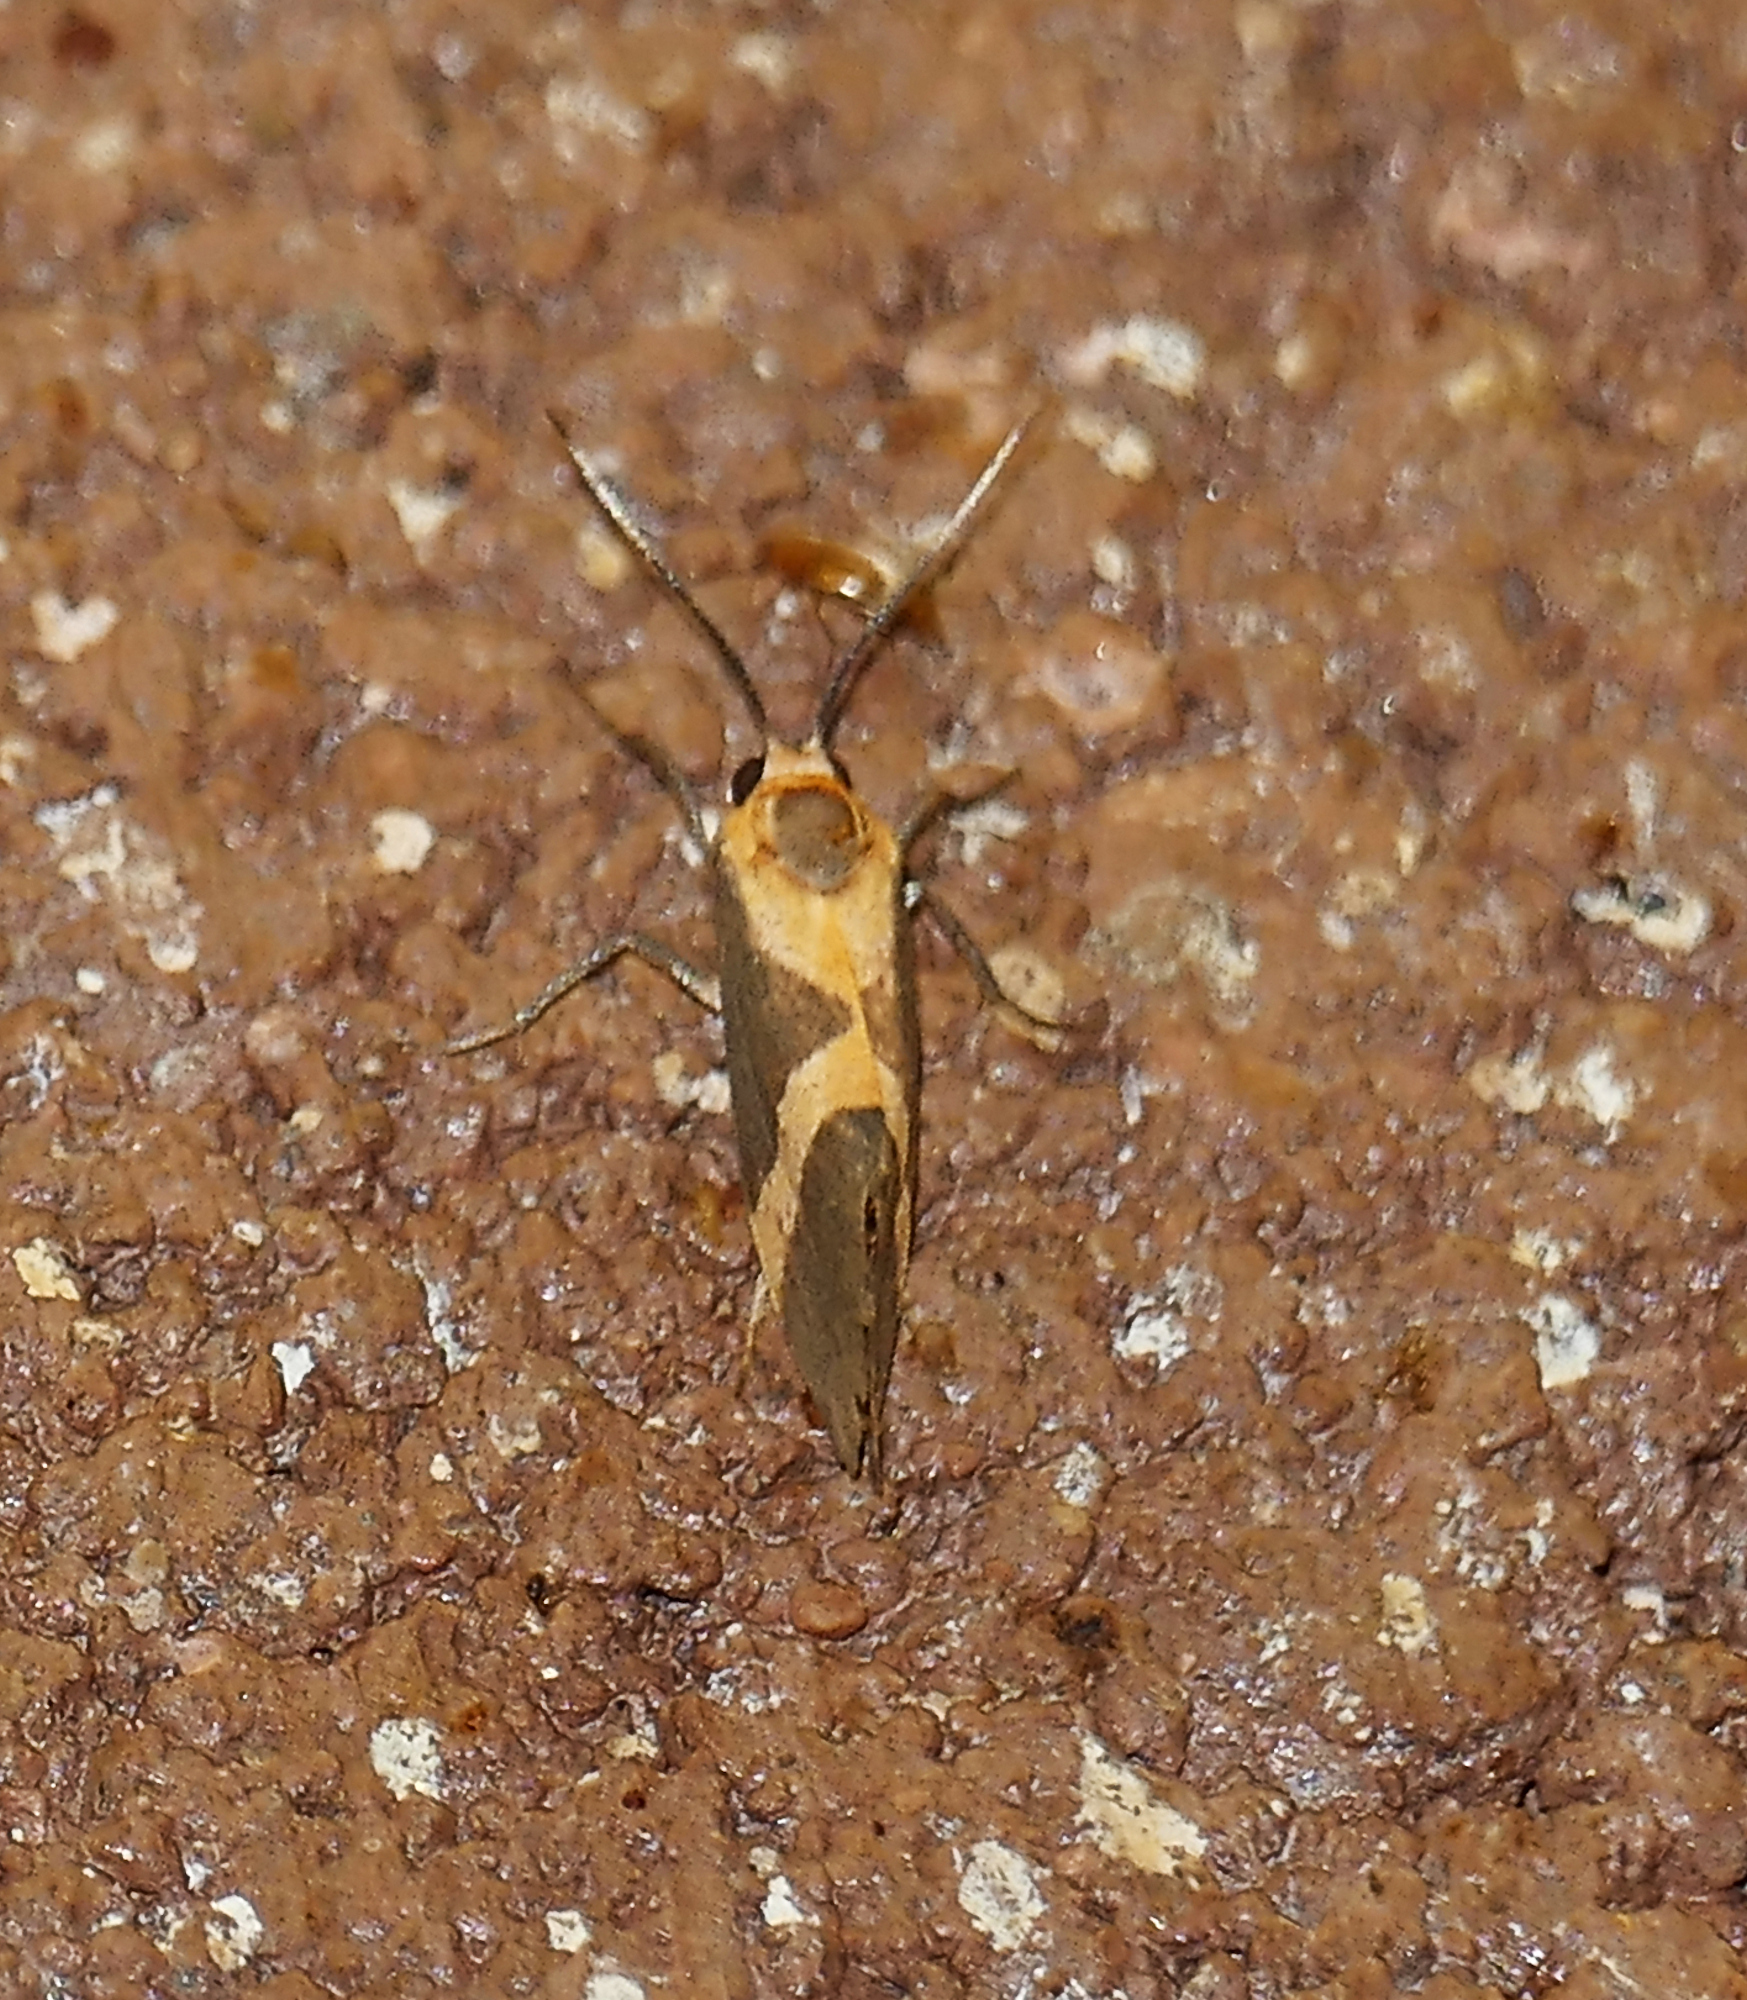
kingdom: Animalia
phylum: Arthropoda
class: Insecta
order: Lepidoptera
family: Erebidae
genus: Cisthene
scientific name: Cisthene tenuifascia
